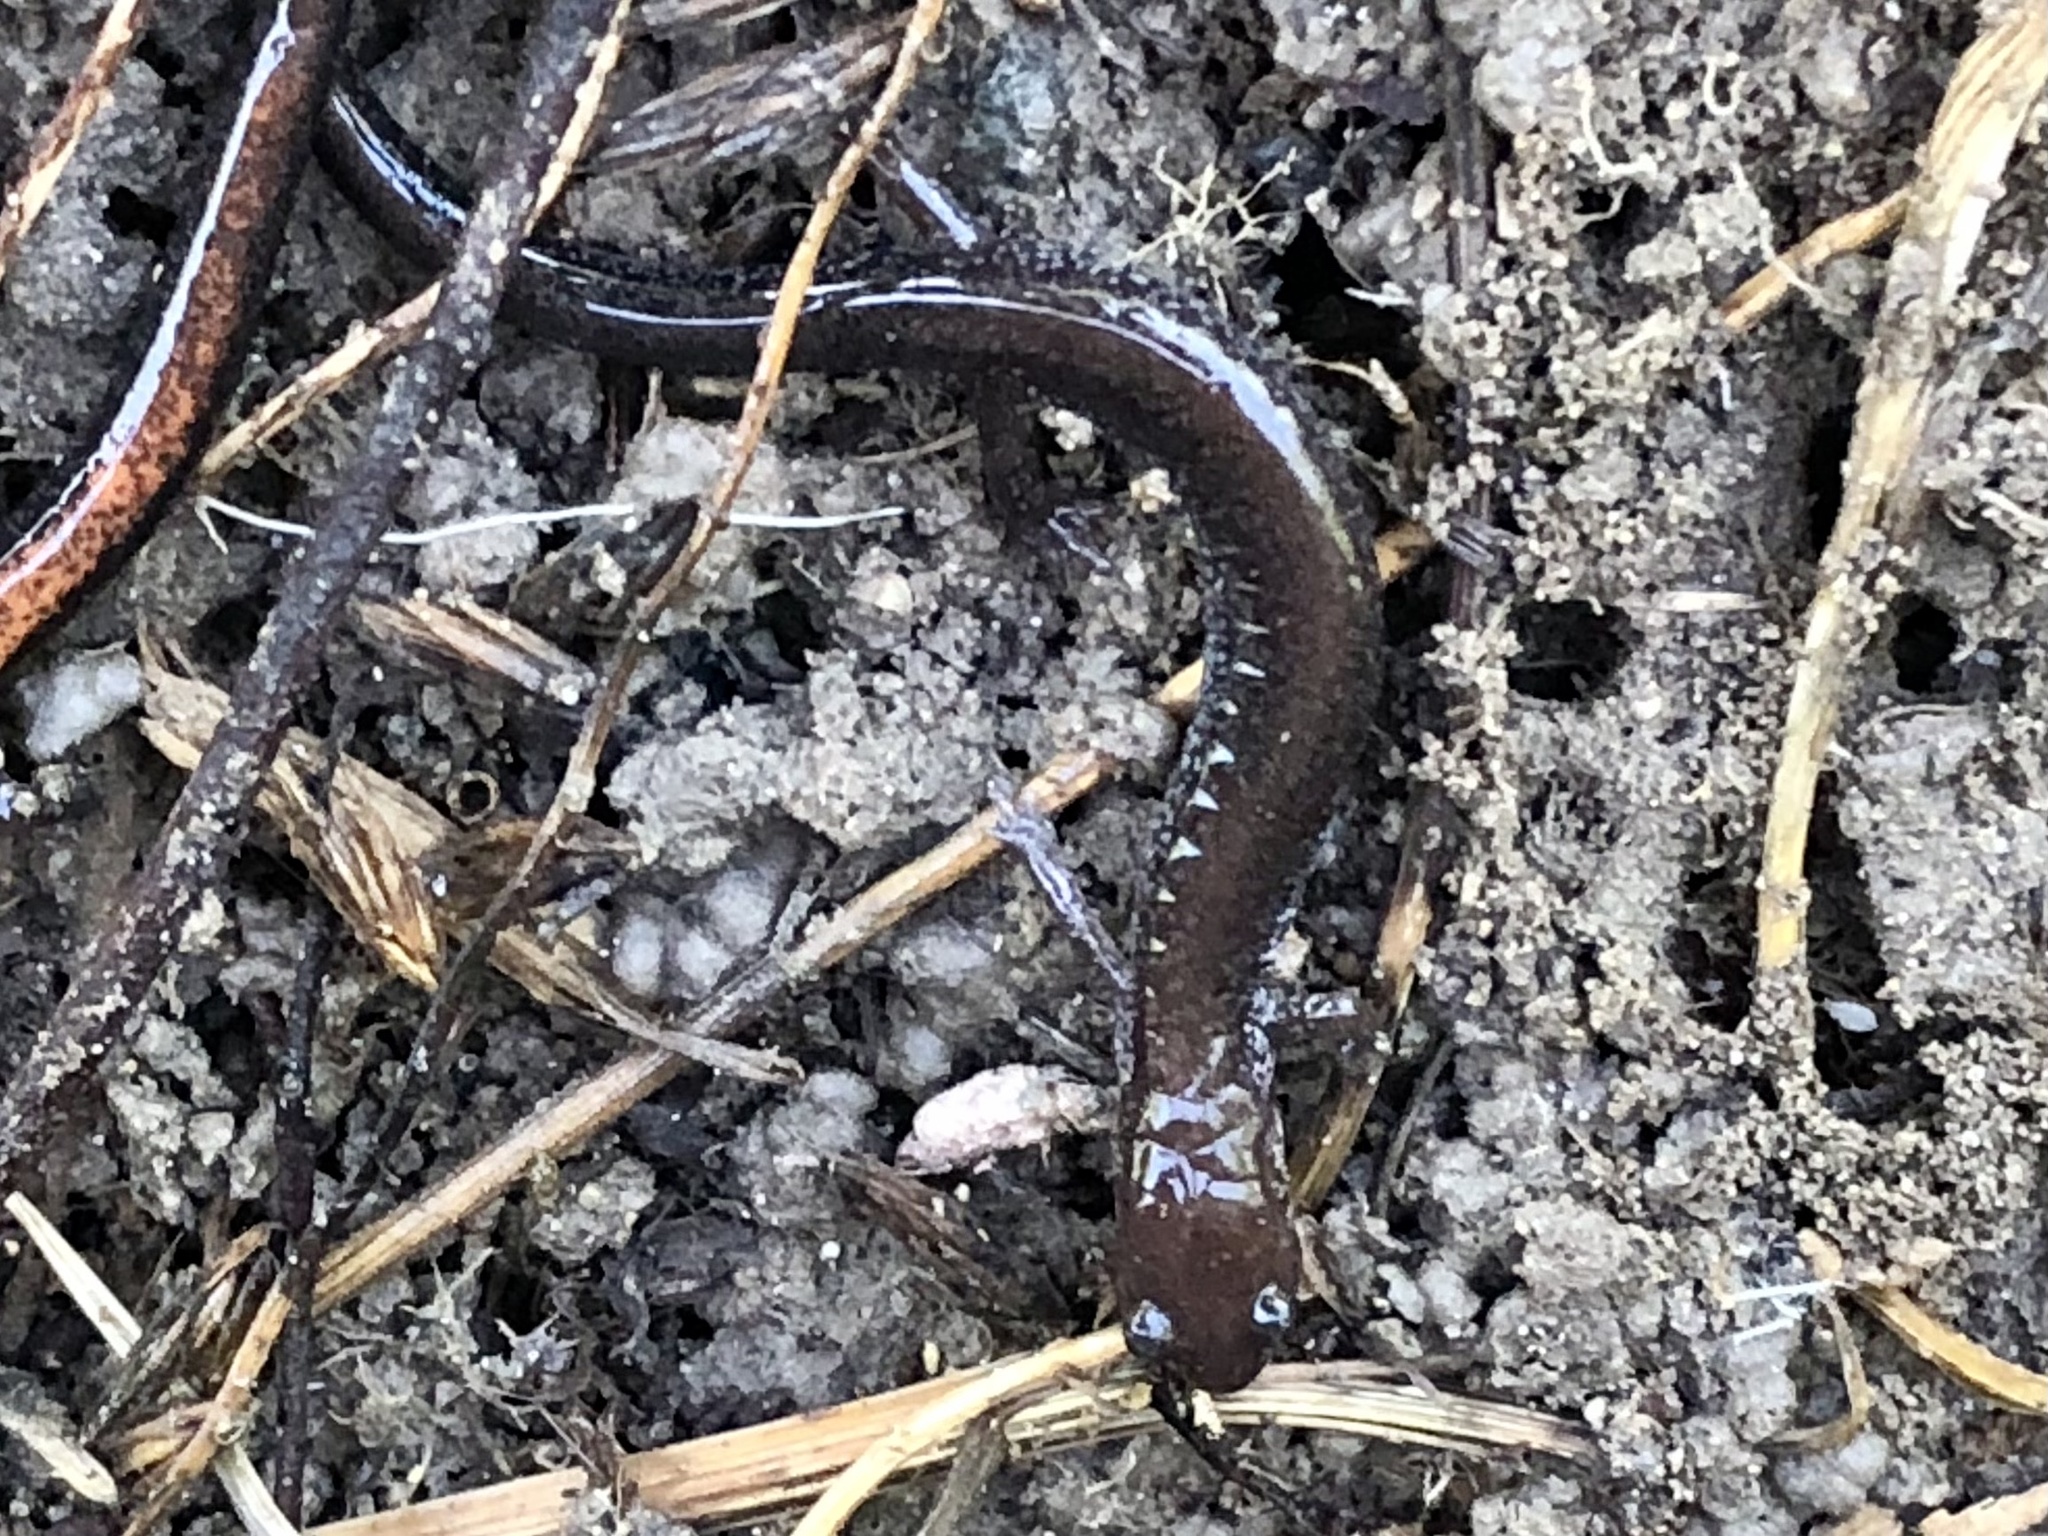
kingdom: Animalia
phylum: Chordata
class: Amphibia
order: Caudata
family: Plethodontidae
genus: Plethodon
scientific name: Plethodon cinereus
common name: Redback salamander
